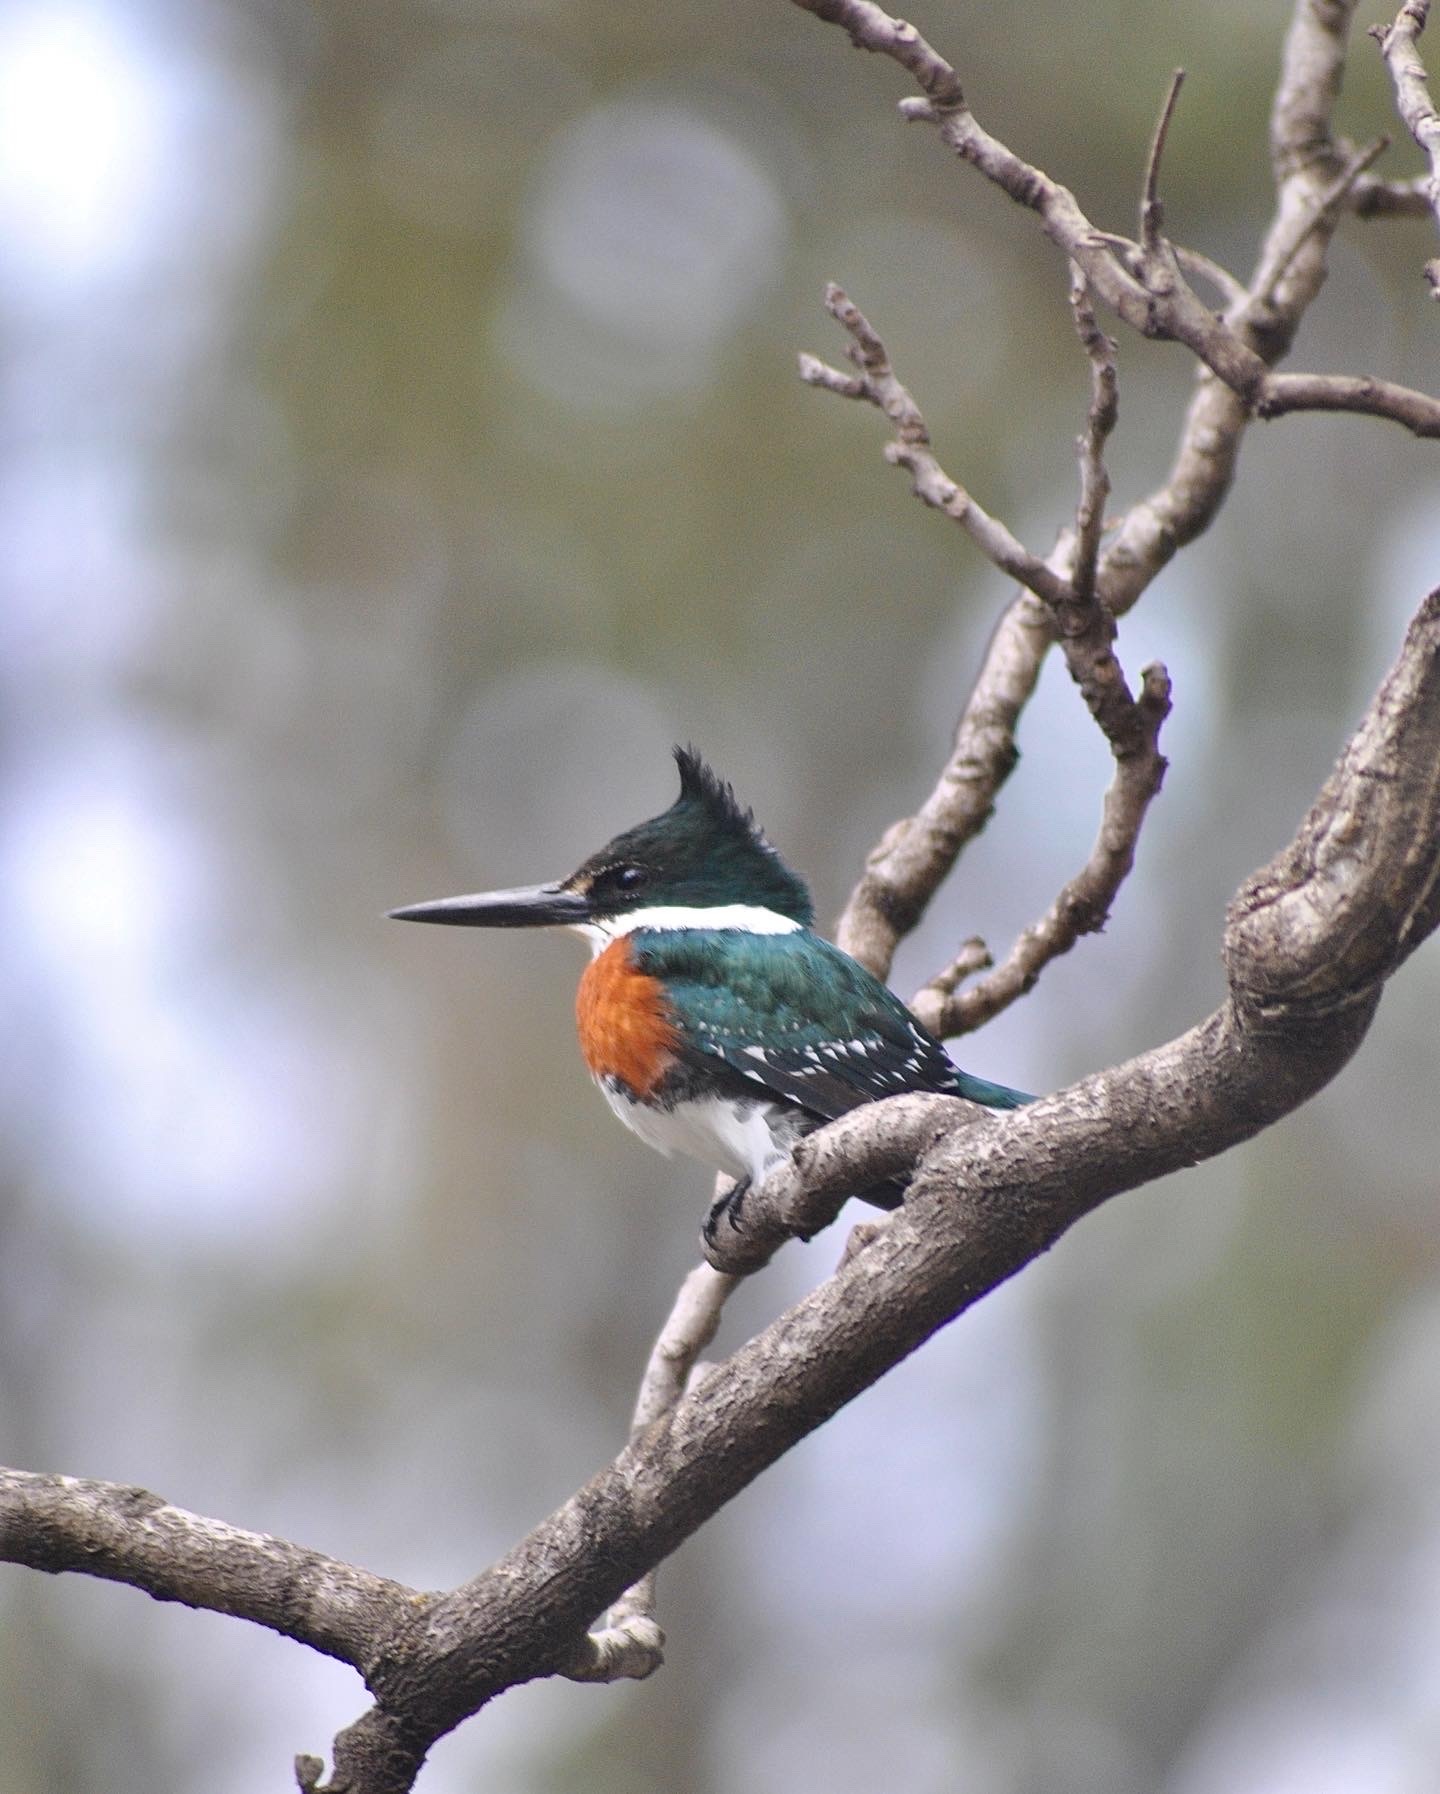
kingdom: Animalia
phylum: Chordata
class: Aves
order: Coraciiformes
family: Alcedinidae
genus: Chloroceryle
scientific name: Chloroceryle americana
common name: Green kingfisher
